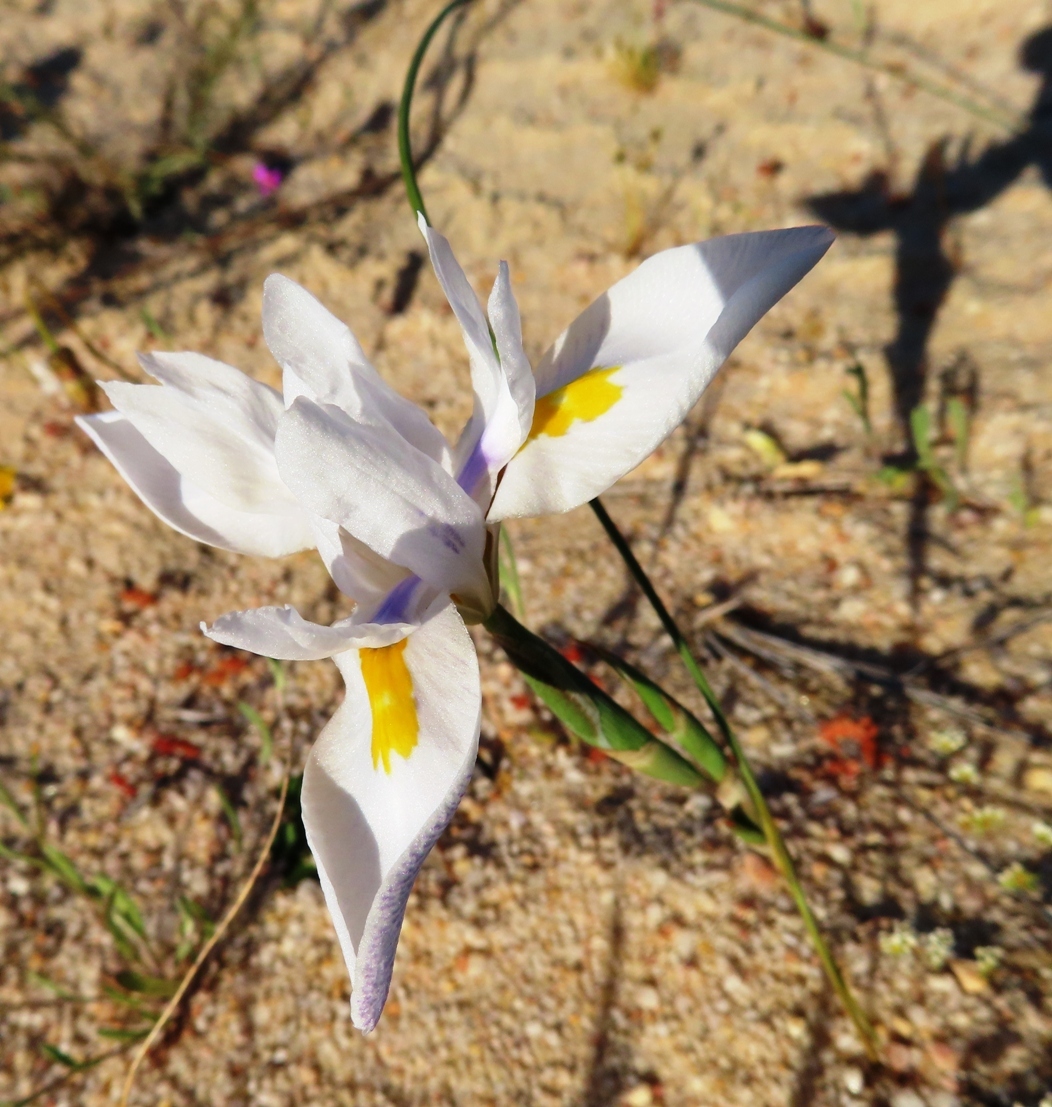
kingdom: Plantae
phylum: Tracheophyta
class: Liliopsida
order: Asparagales
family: Iridaceae
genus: Moraea
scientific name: Moraea fugax
